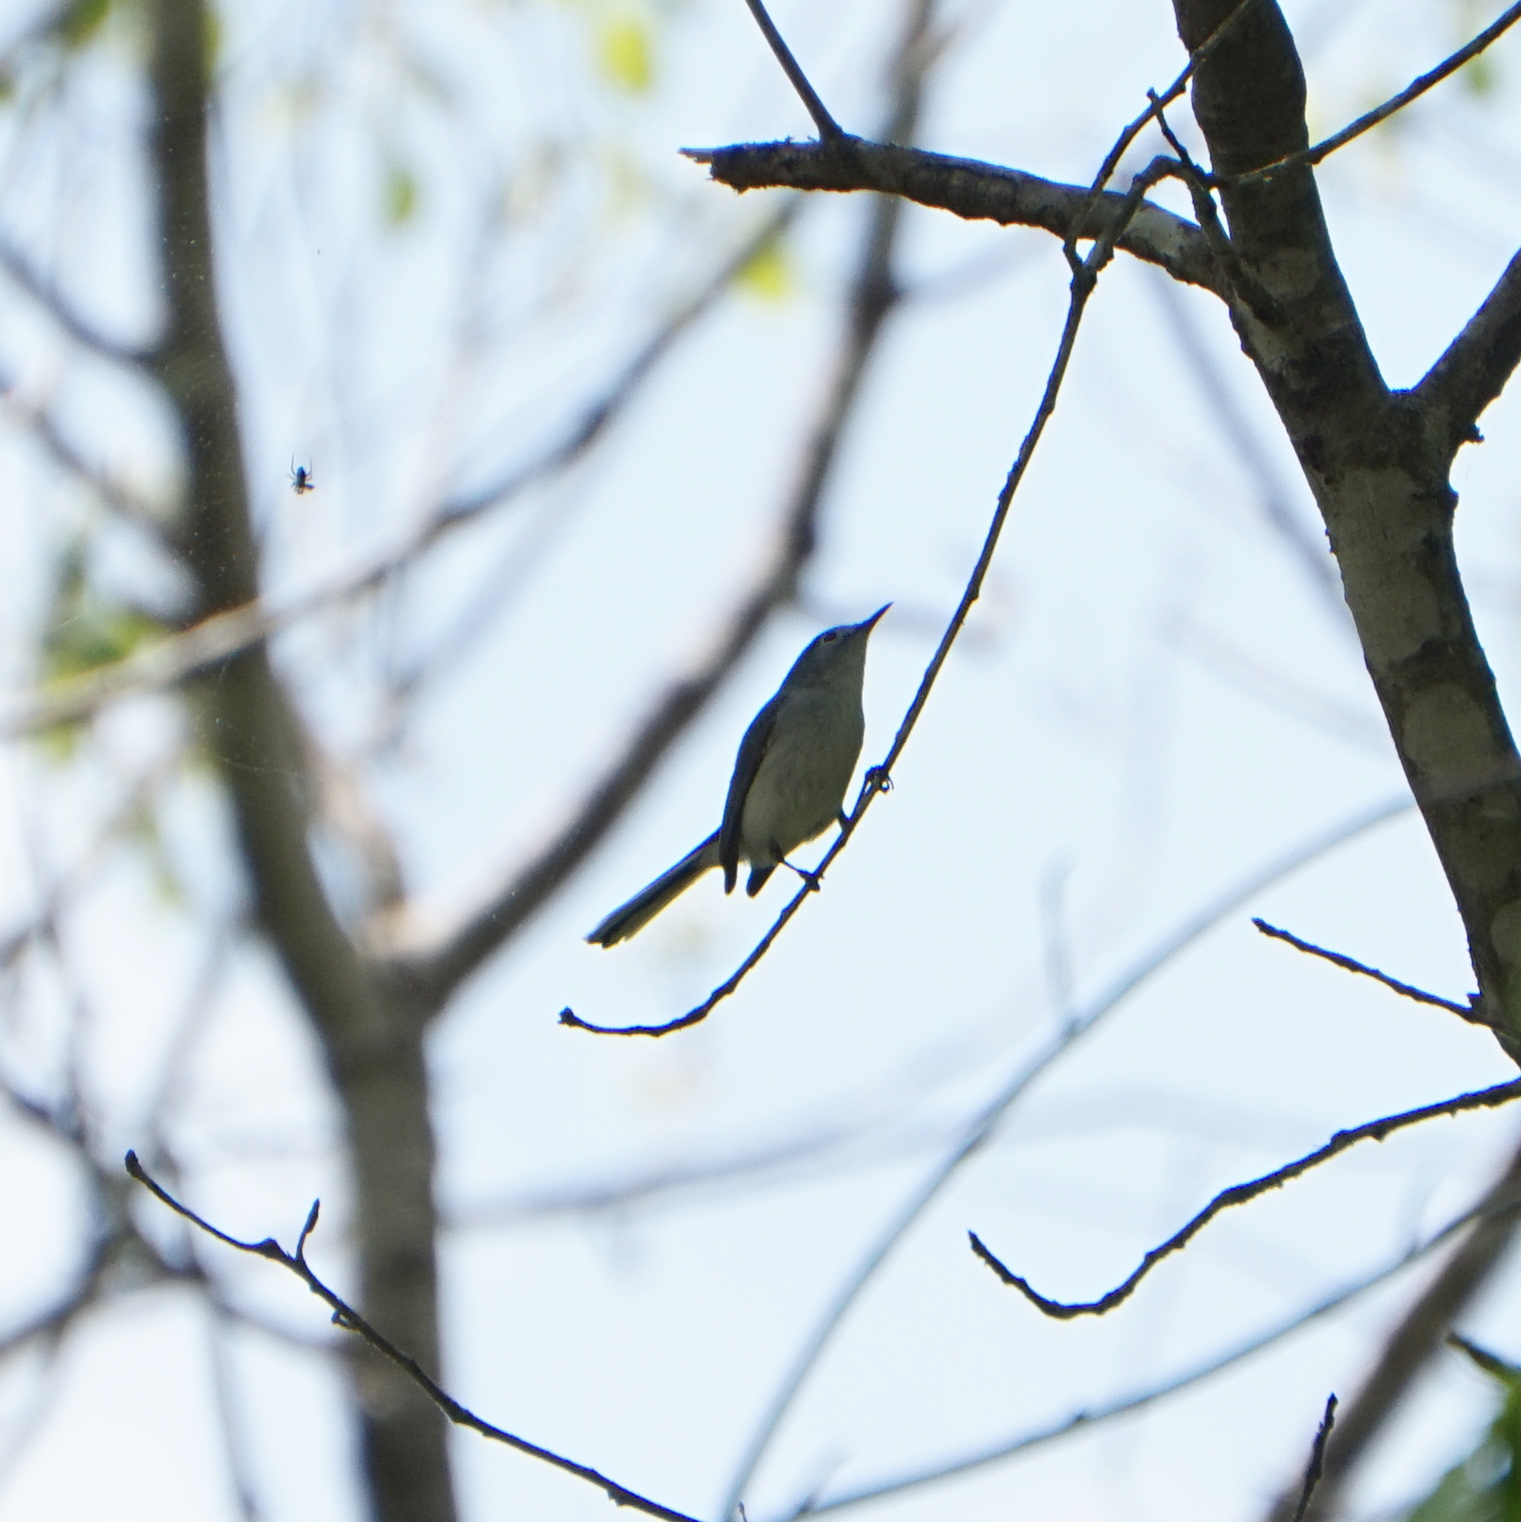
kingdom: Animalia
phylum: Chordata
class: Aves
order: Passeriformes
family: Polioptilidae
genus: Polioptila
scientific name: Polioptila caerulea
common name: Blue-gray gnatcatcher
